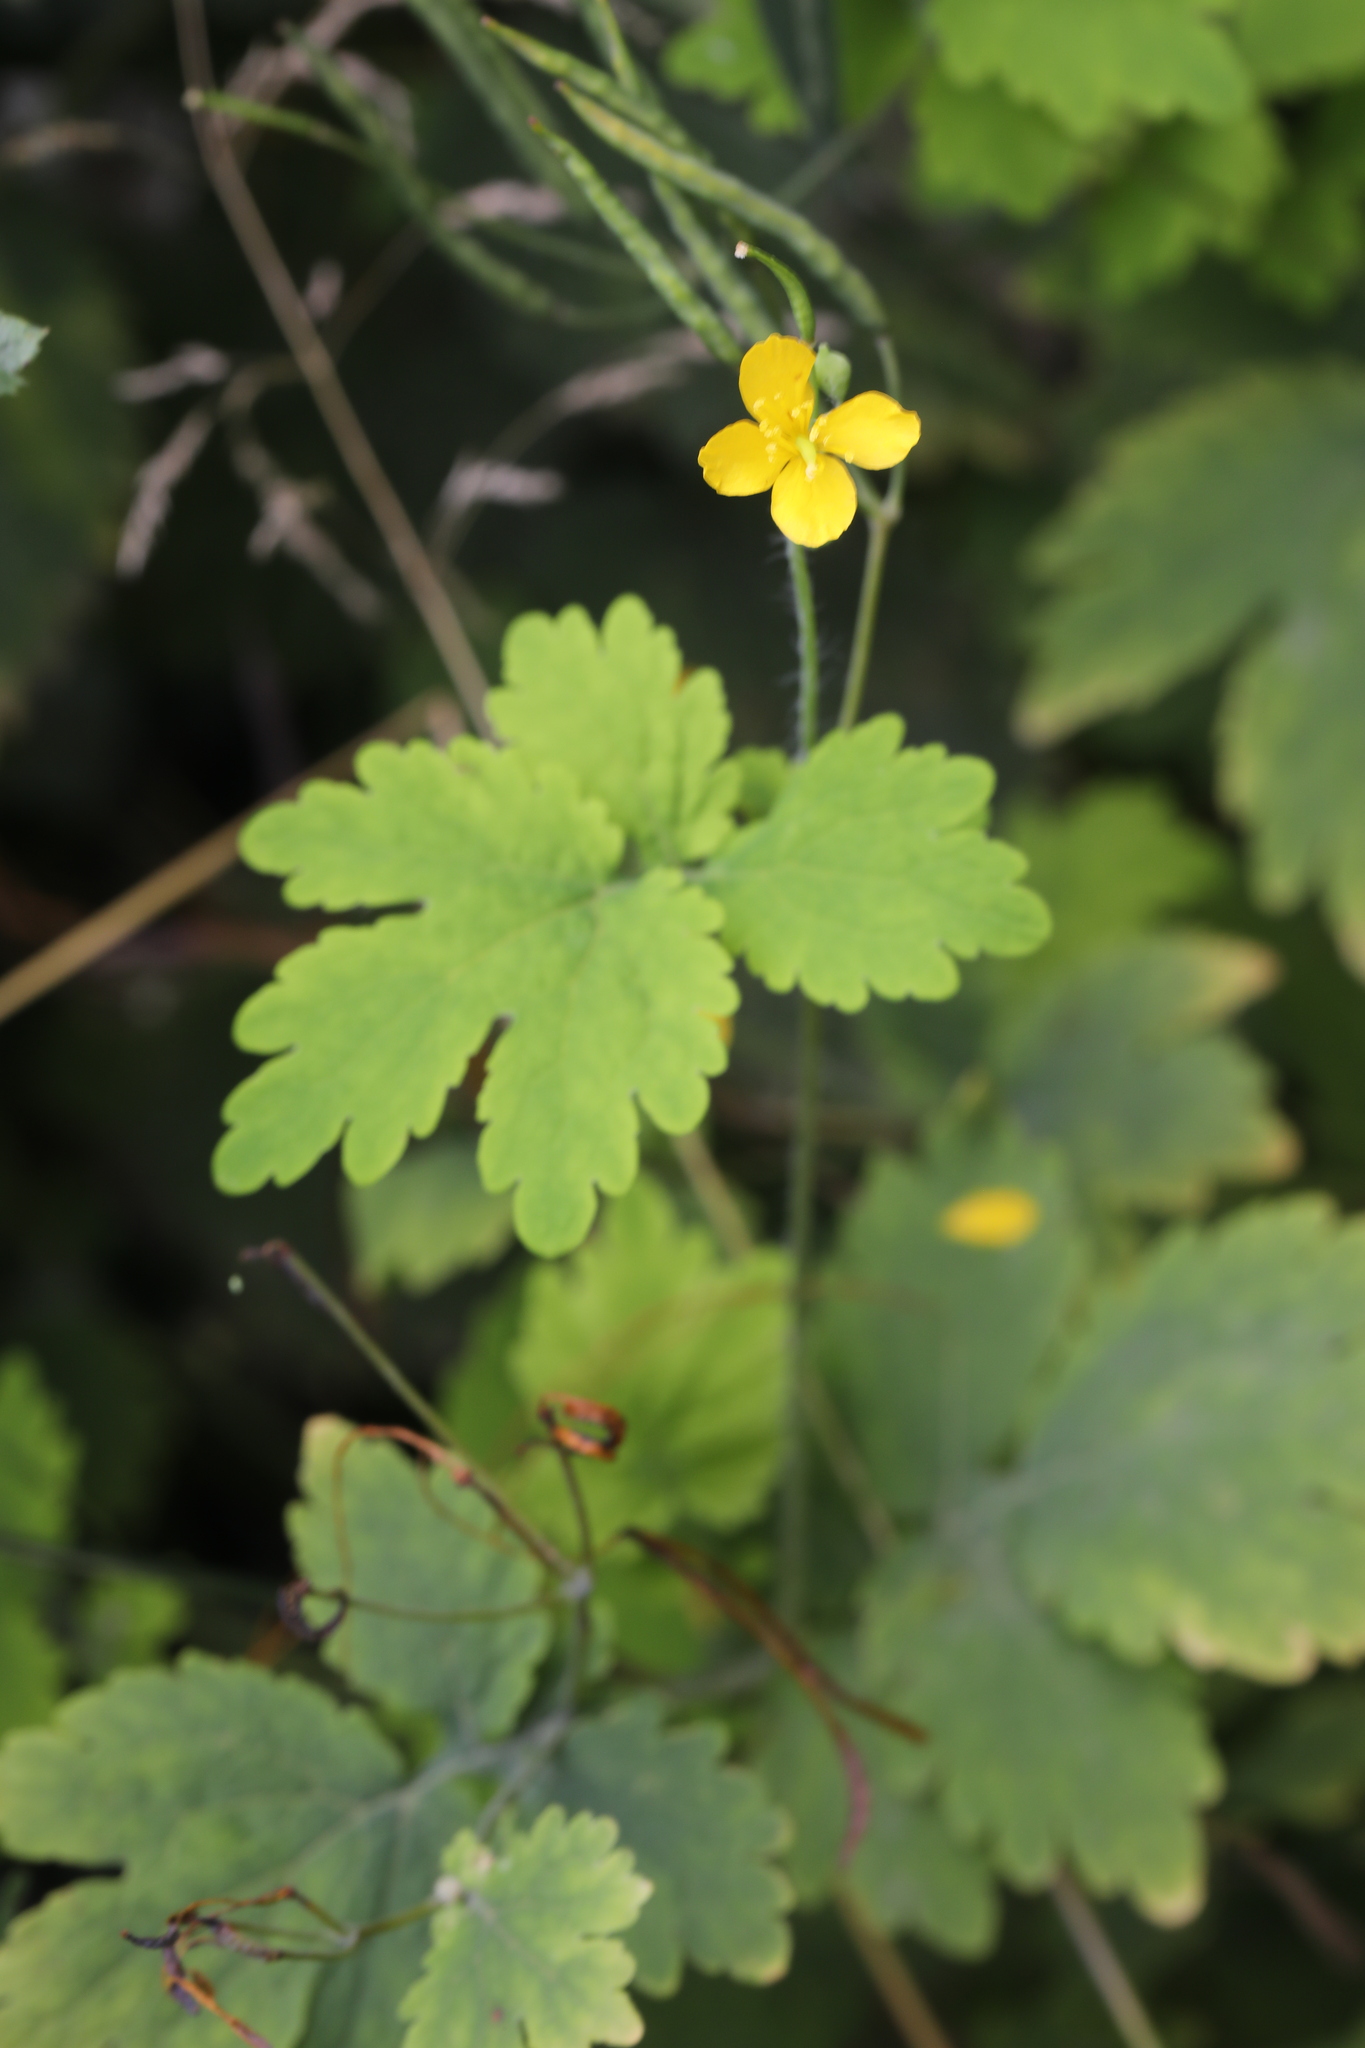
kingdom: Plantae
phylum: Tracheophyta
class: Magnoliopsida
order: Ranunculales
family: Papaveraceae
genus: Chelidonium
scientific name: Chelidonium majus
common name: Greater celandine
